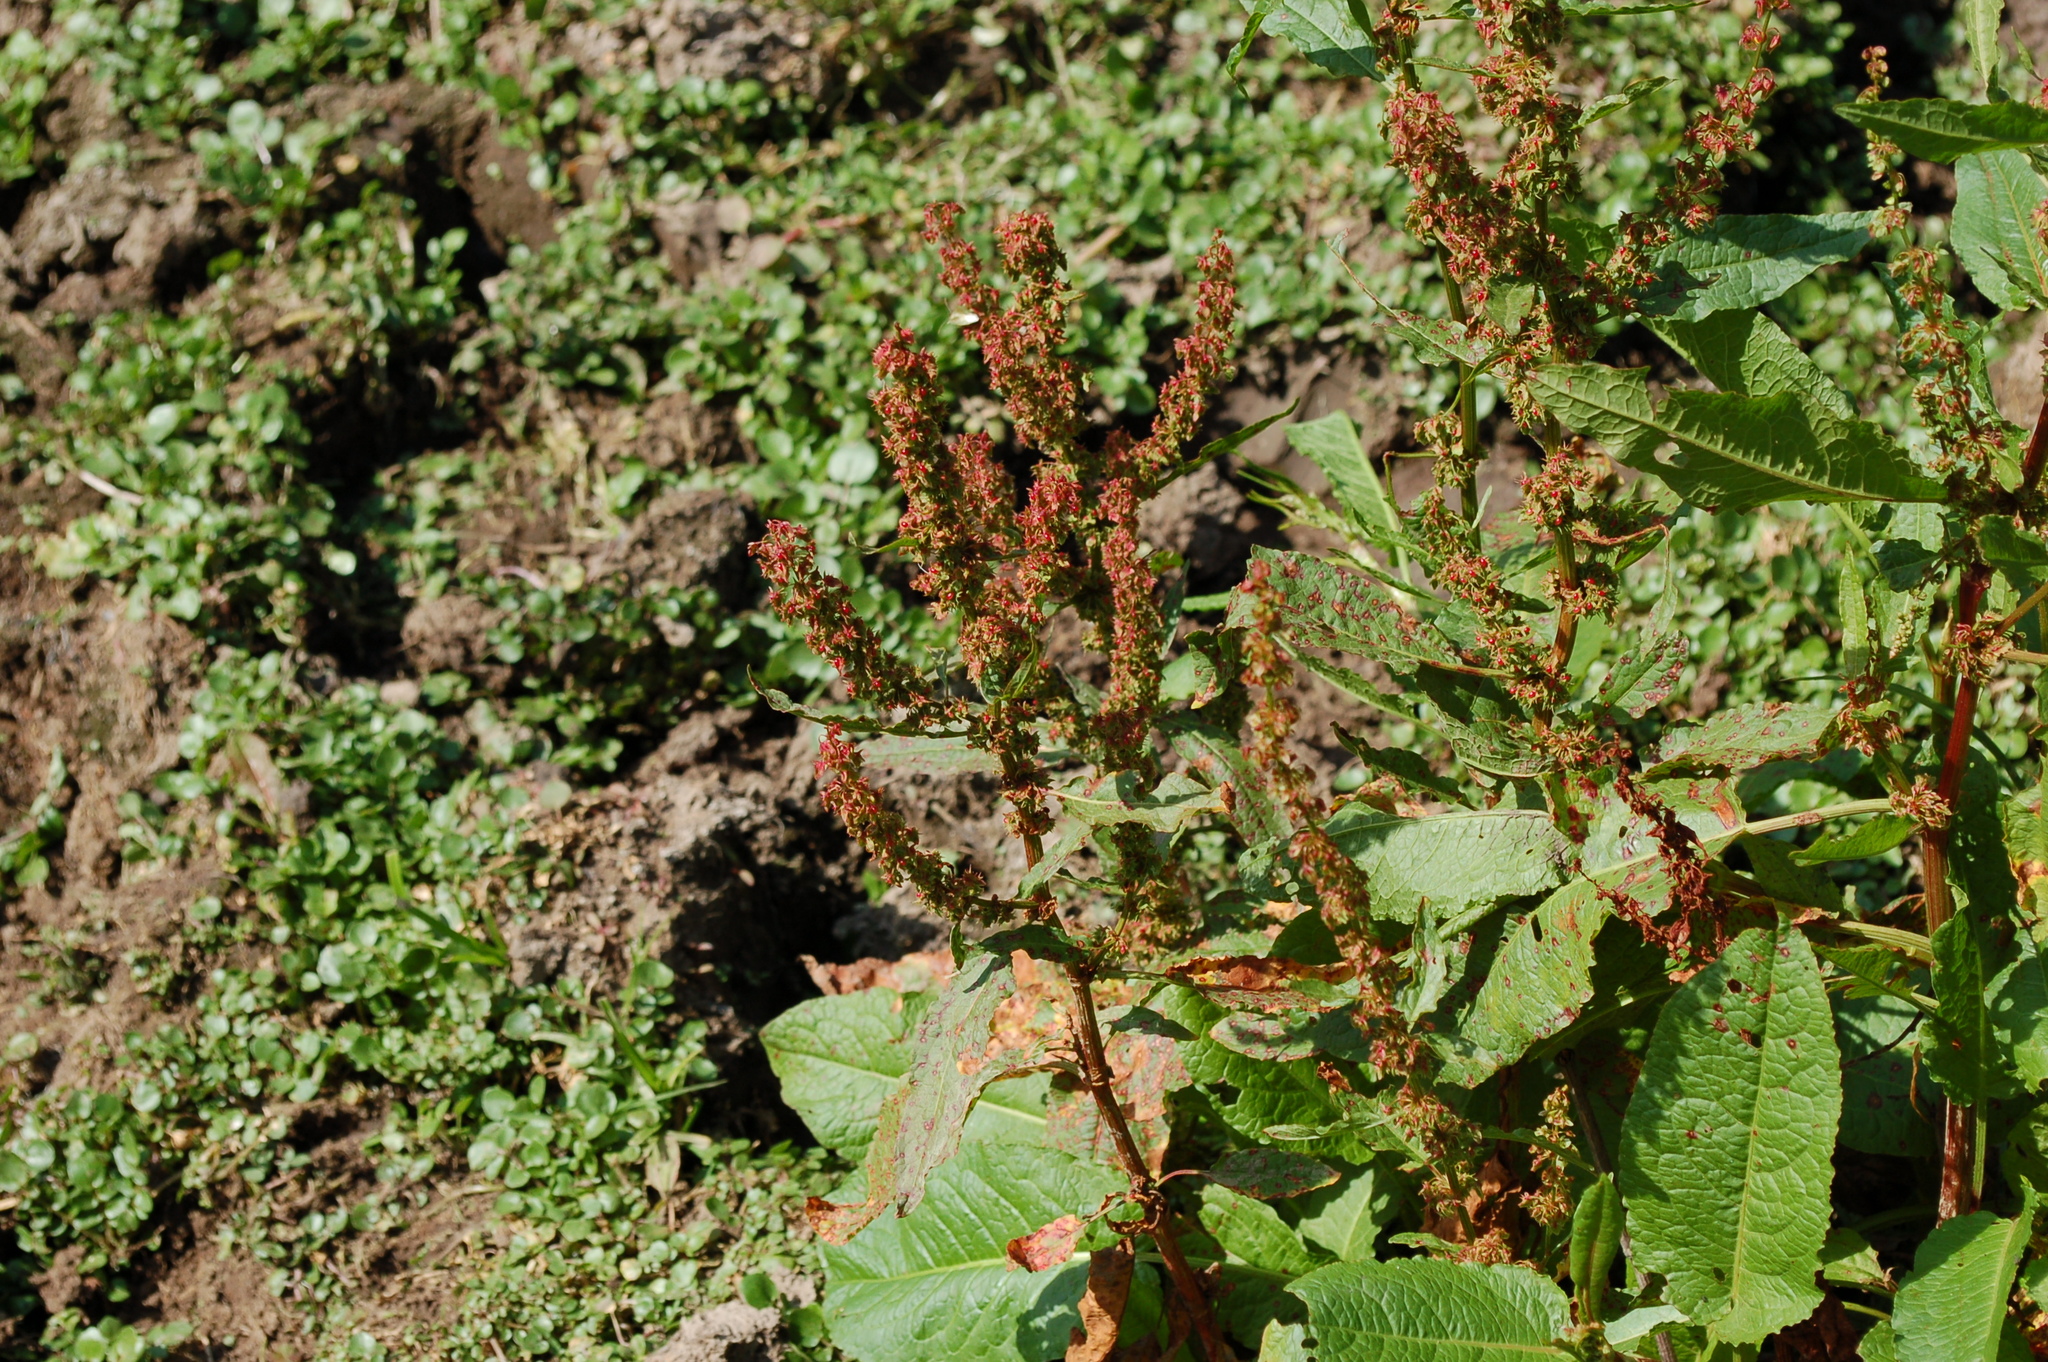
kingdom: Plantae
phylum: Tracheophyta
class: Magnoliopsida
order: Caryophyllales
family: Polygonaceae
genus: Rumex
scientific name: Rumex obtusifolius
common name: Bitter dock
